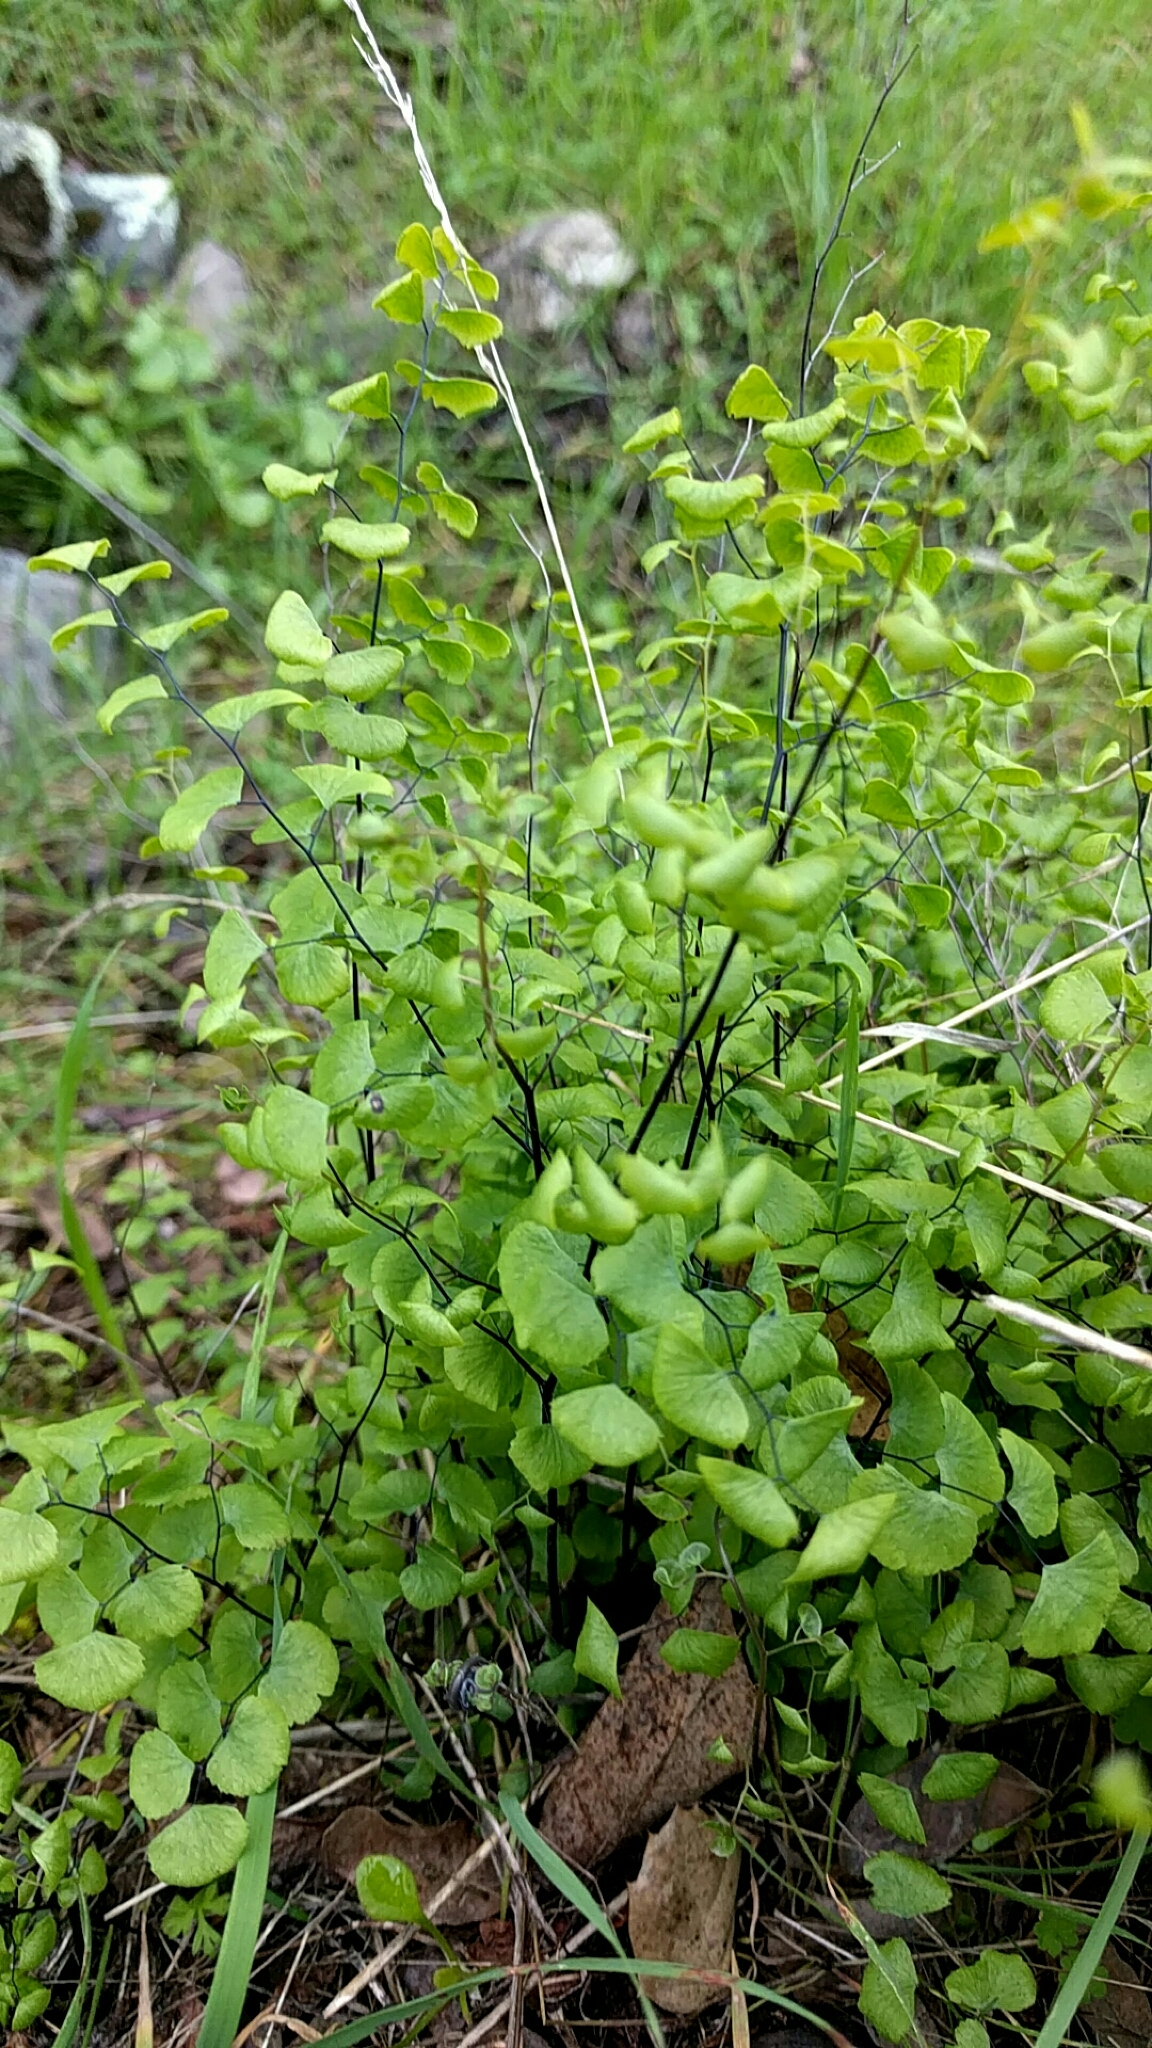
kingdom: Plantae
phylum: Tracheophyta
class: Polypodiopsida
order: Polypodiales
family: Pteridaceae
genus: Adiantum
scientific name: Adiantum jordanii
